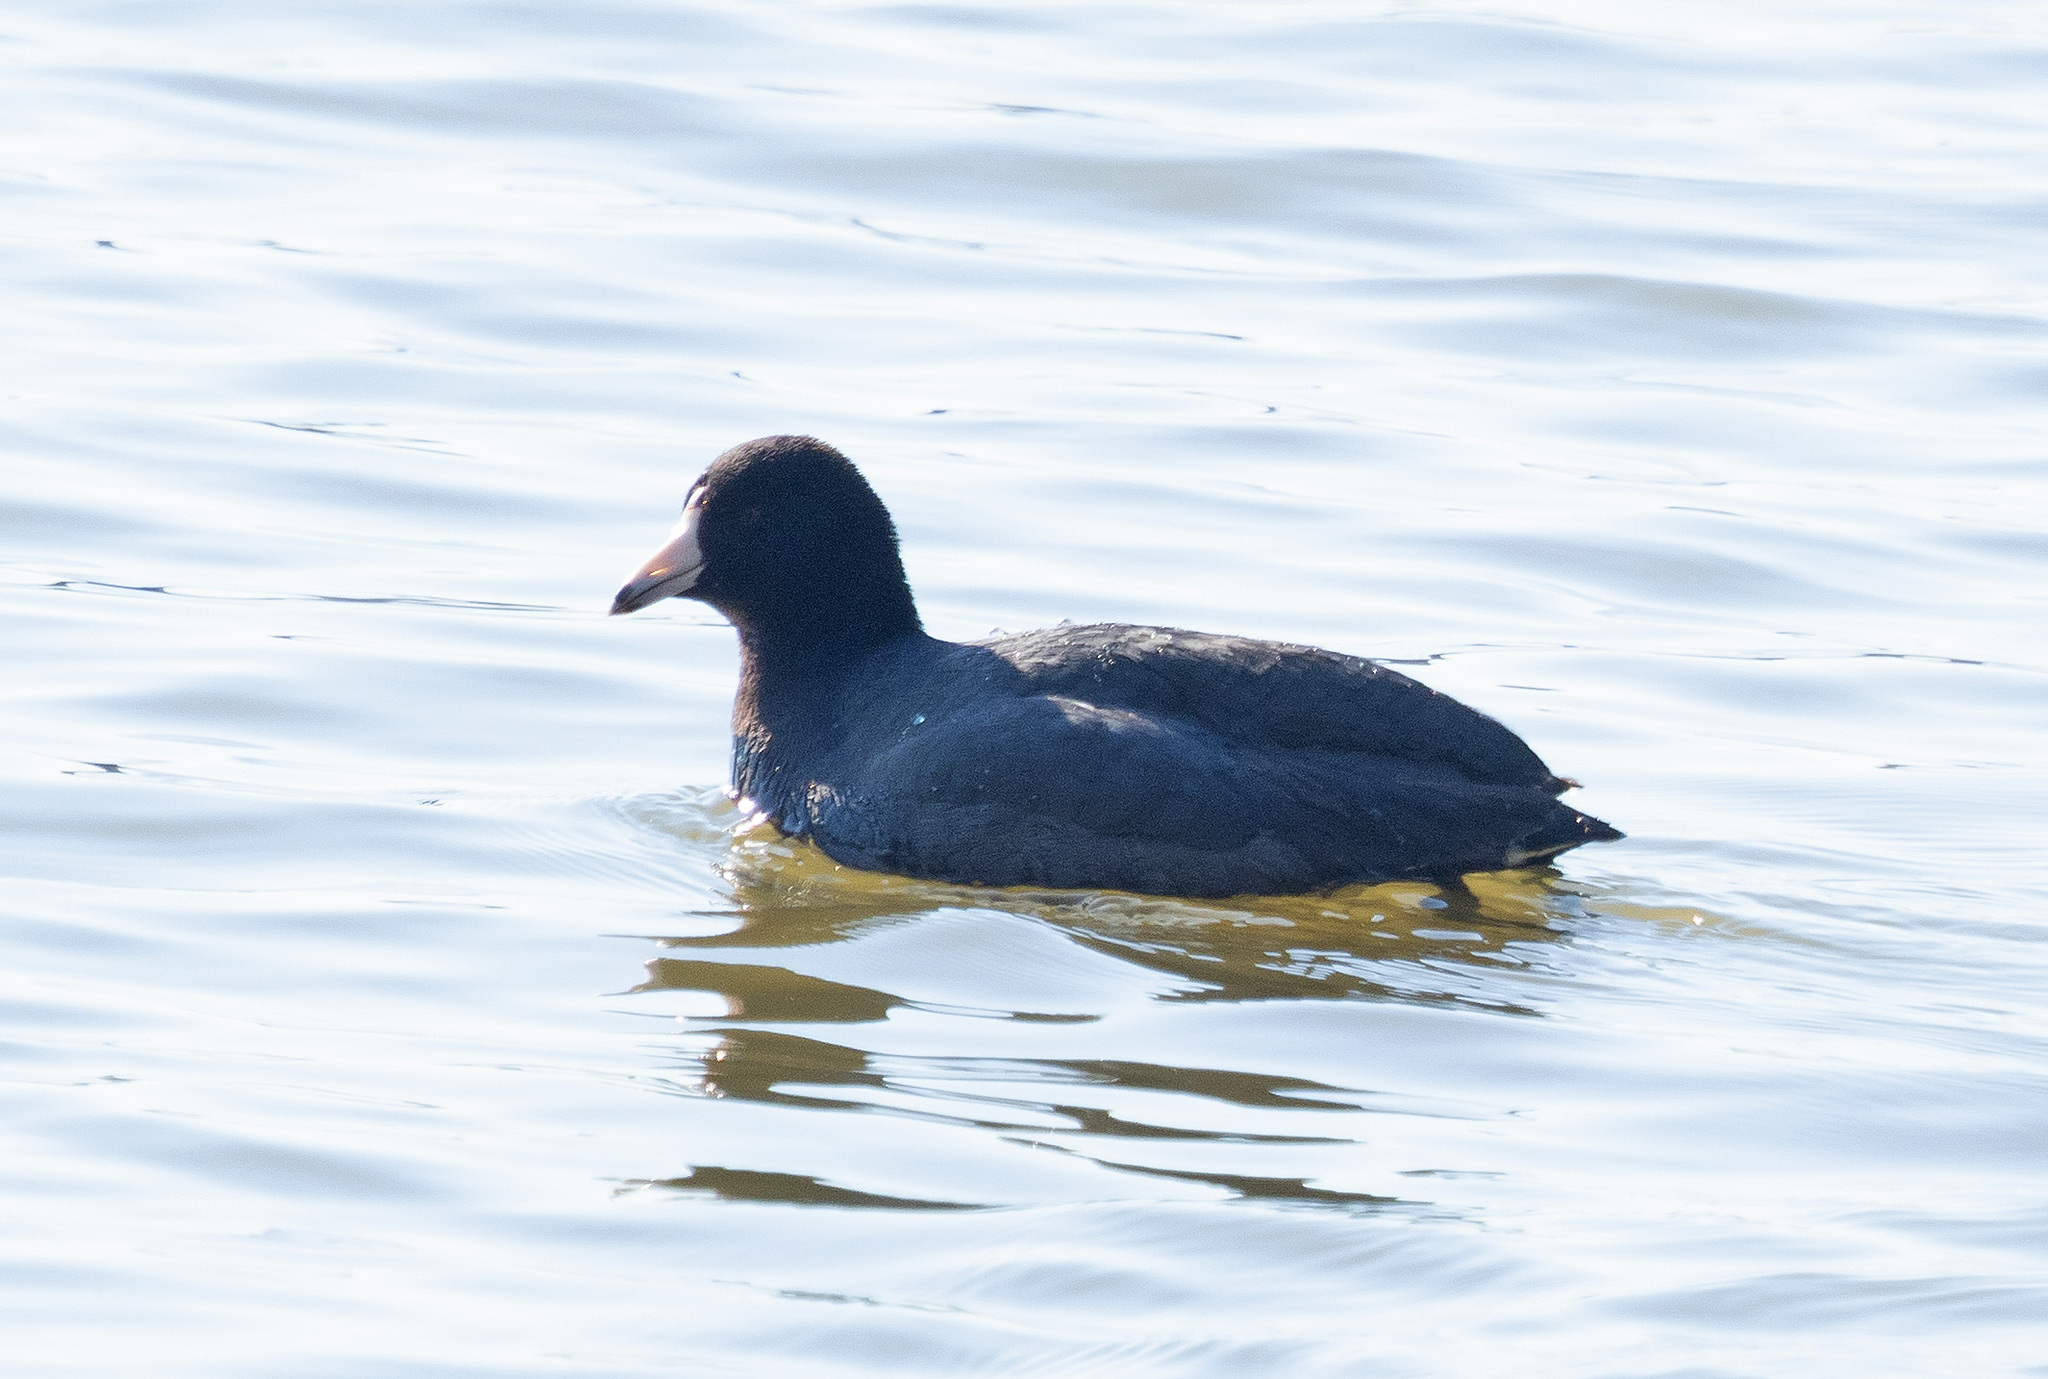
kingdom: Animalia
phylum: Chordata
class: Aves
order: Gruiformes
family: Rallidae
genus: Fulica
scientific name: Fulica americana
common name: American coot
